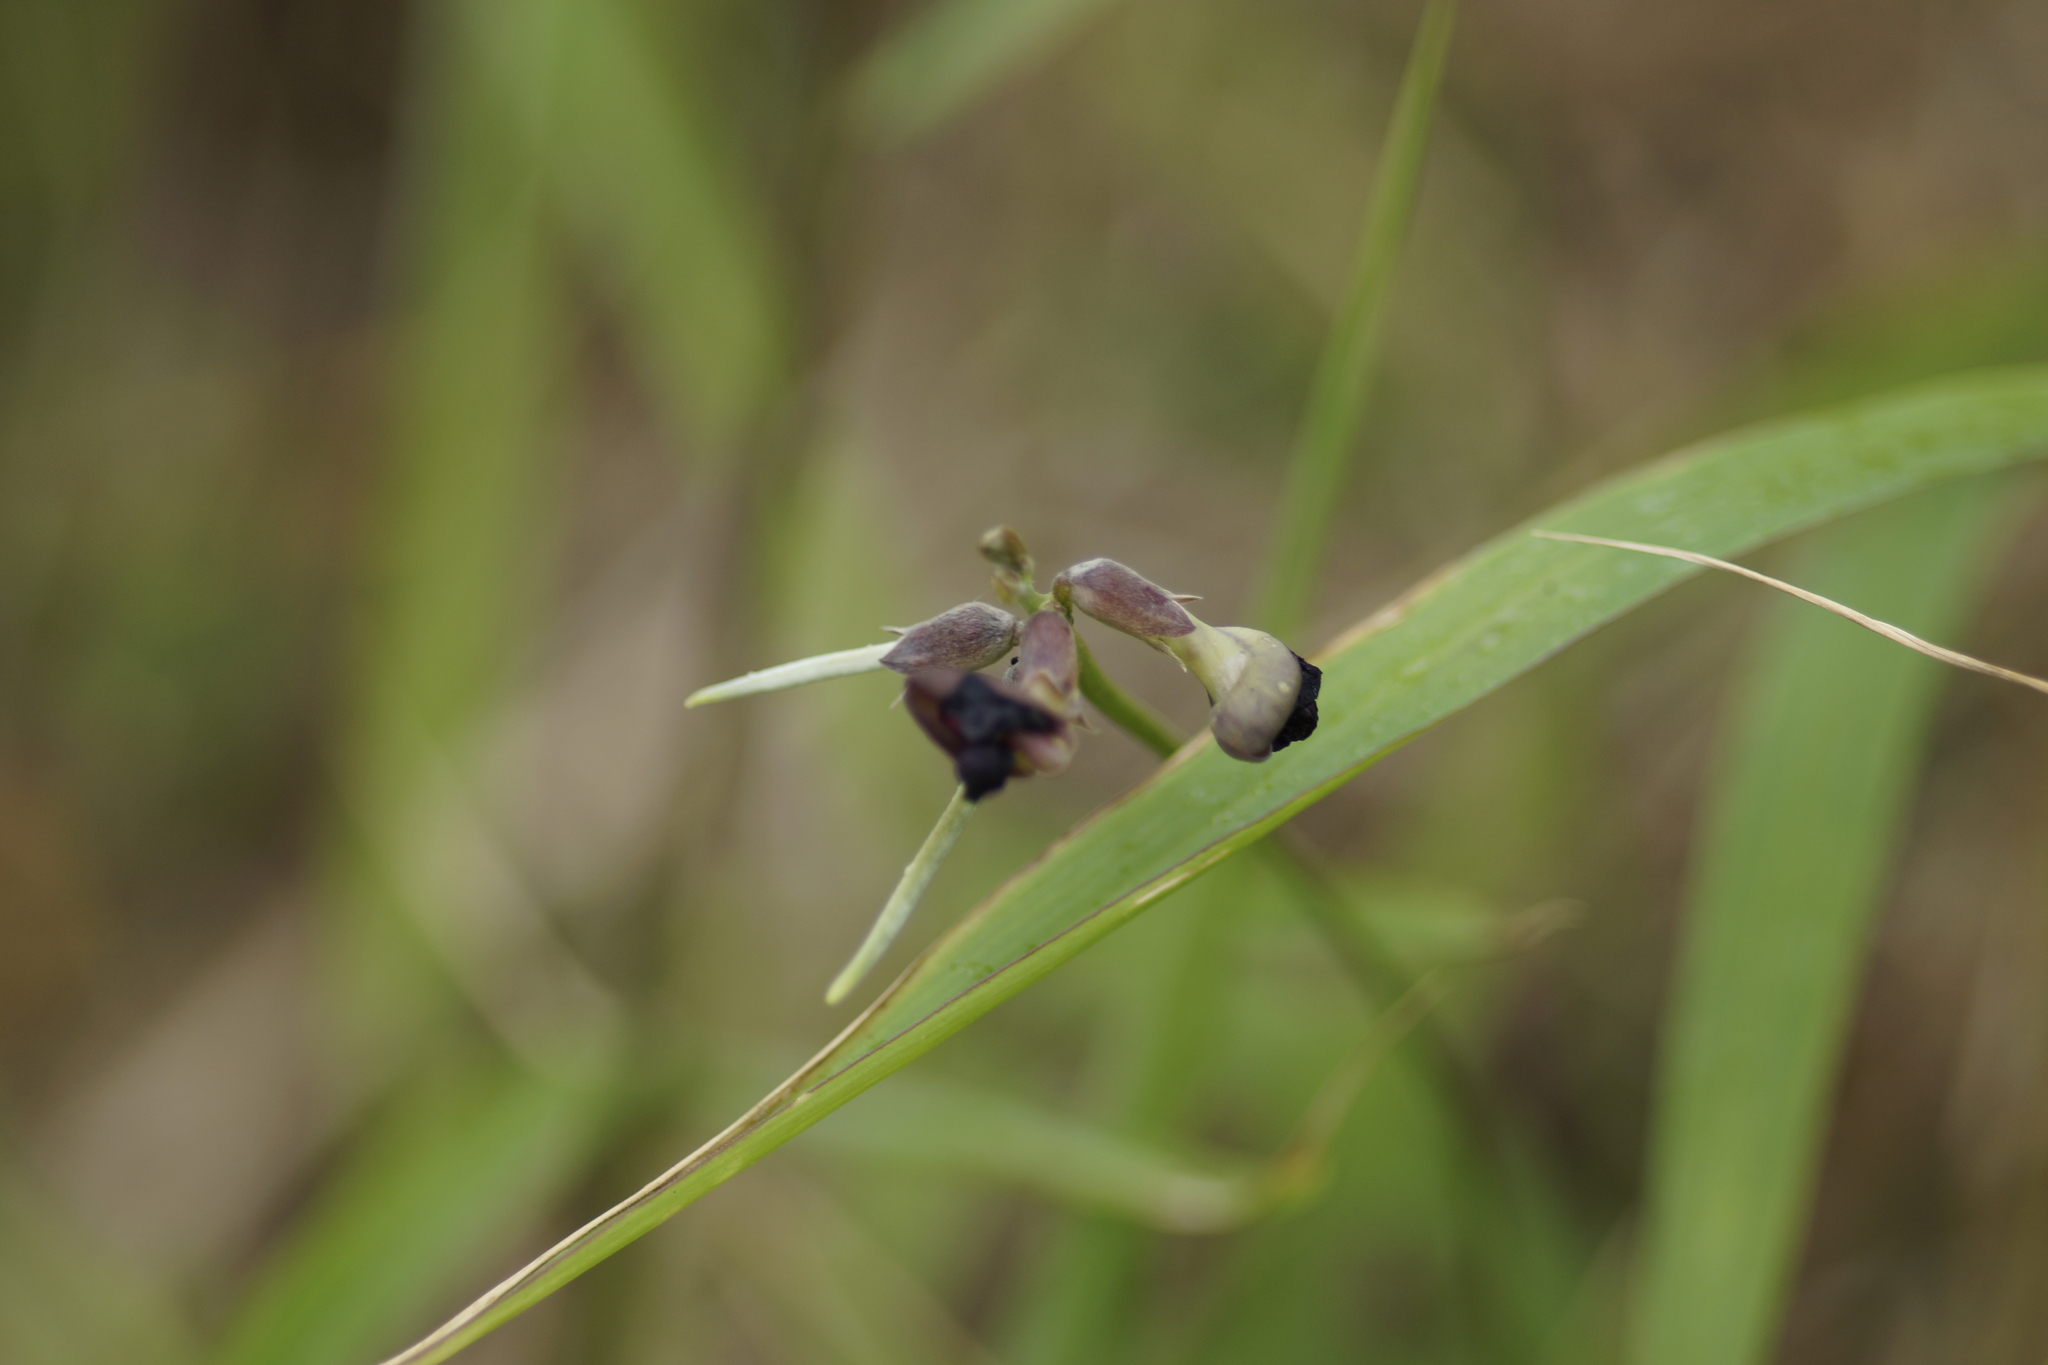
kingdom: Plantae
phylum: Tracheophyta
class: Magnoliopsida
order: Fabales
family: Fabaceae
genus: Macroptilium
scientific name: Macroptilium atropurpureum
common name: Purple bushbean
